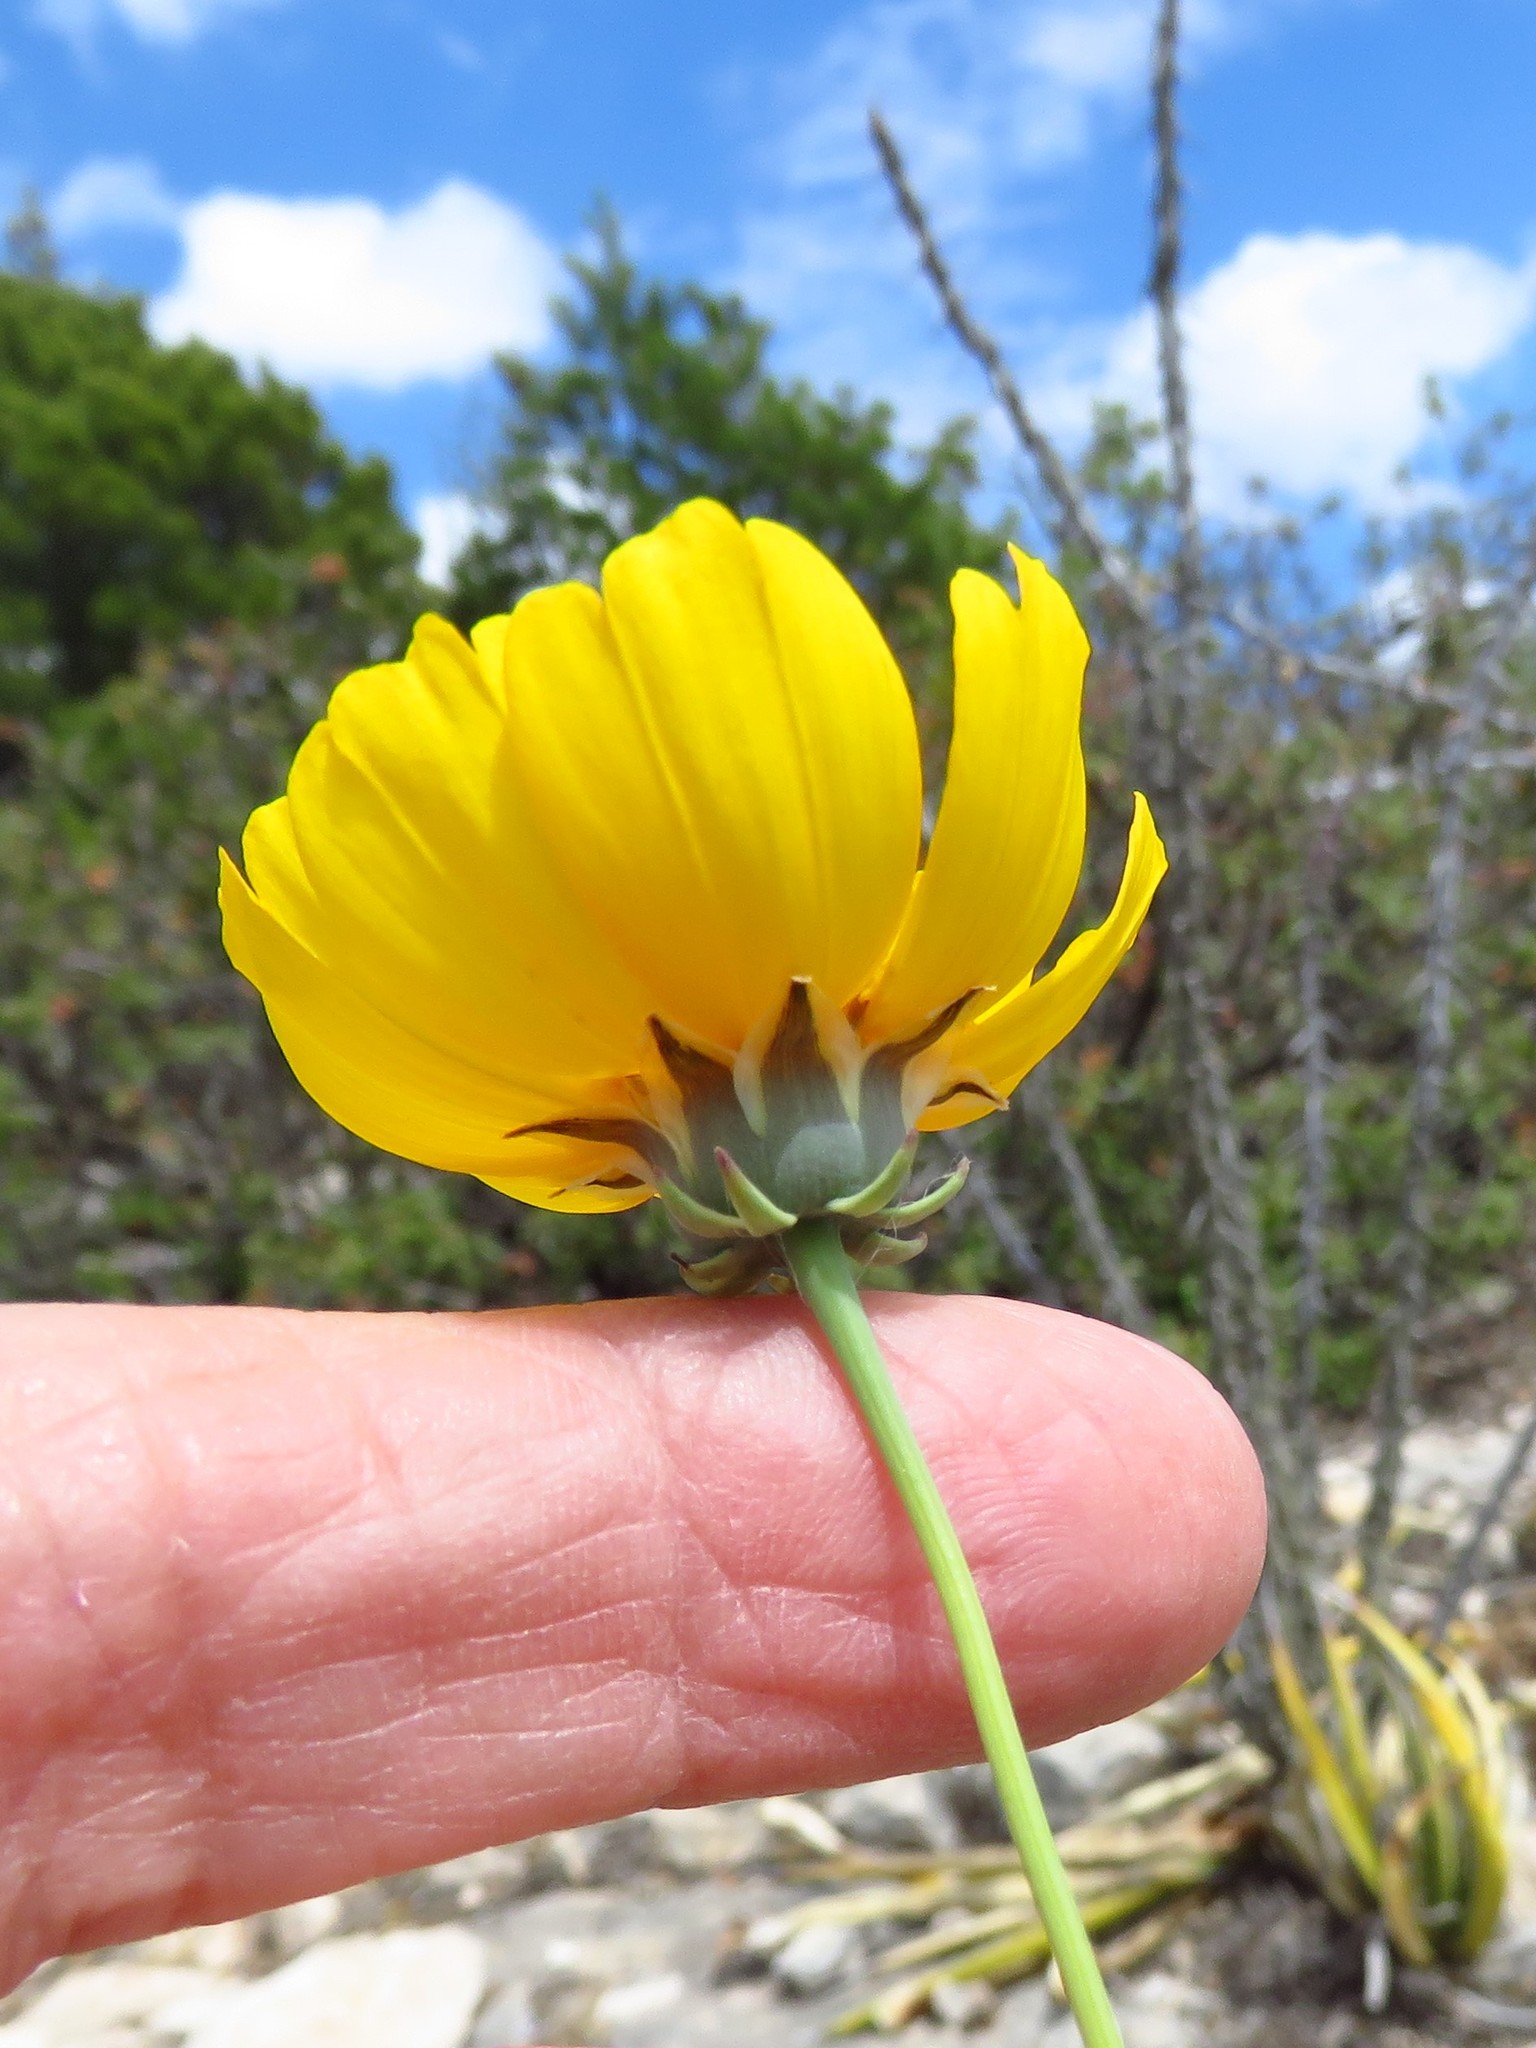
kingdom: Plantae
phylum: Tracheophyta
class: Magnoliopsida
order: Asterales
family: Asteraceae
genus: Thelesperma
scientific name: Thelesperma simplicifolium
